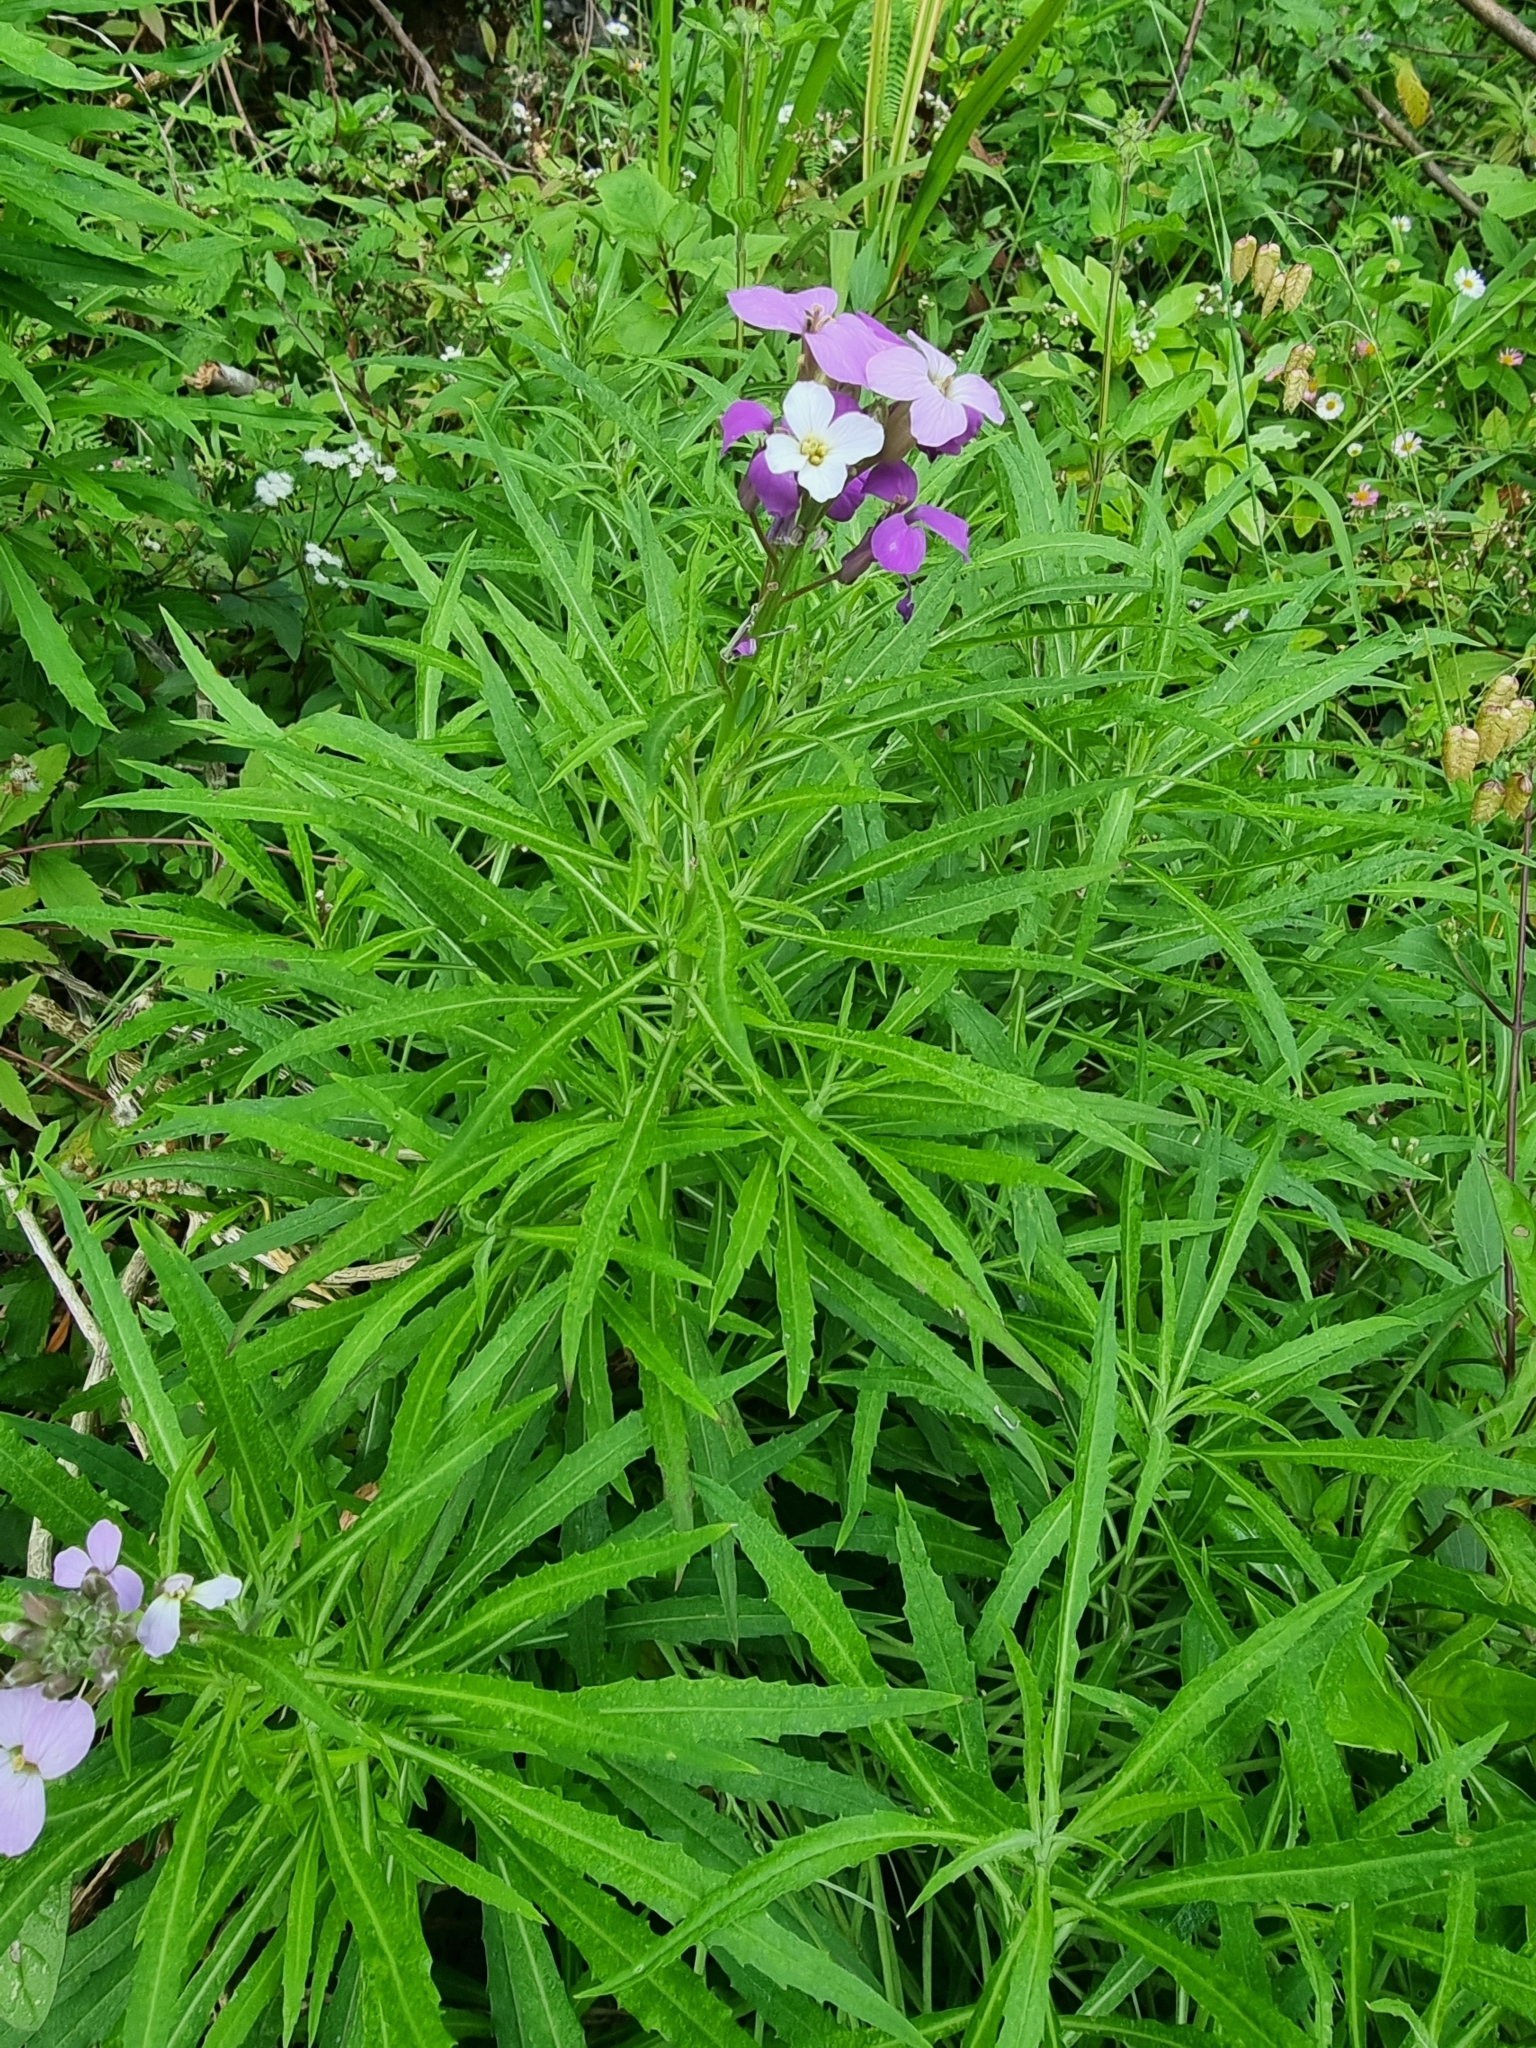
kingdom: Plantae
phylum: Tracheophyta
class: Magnoliopsida
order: Brassicales
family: Brassicaceae
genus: Erysimum
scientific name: Erysimum bicolor
